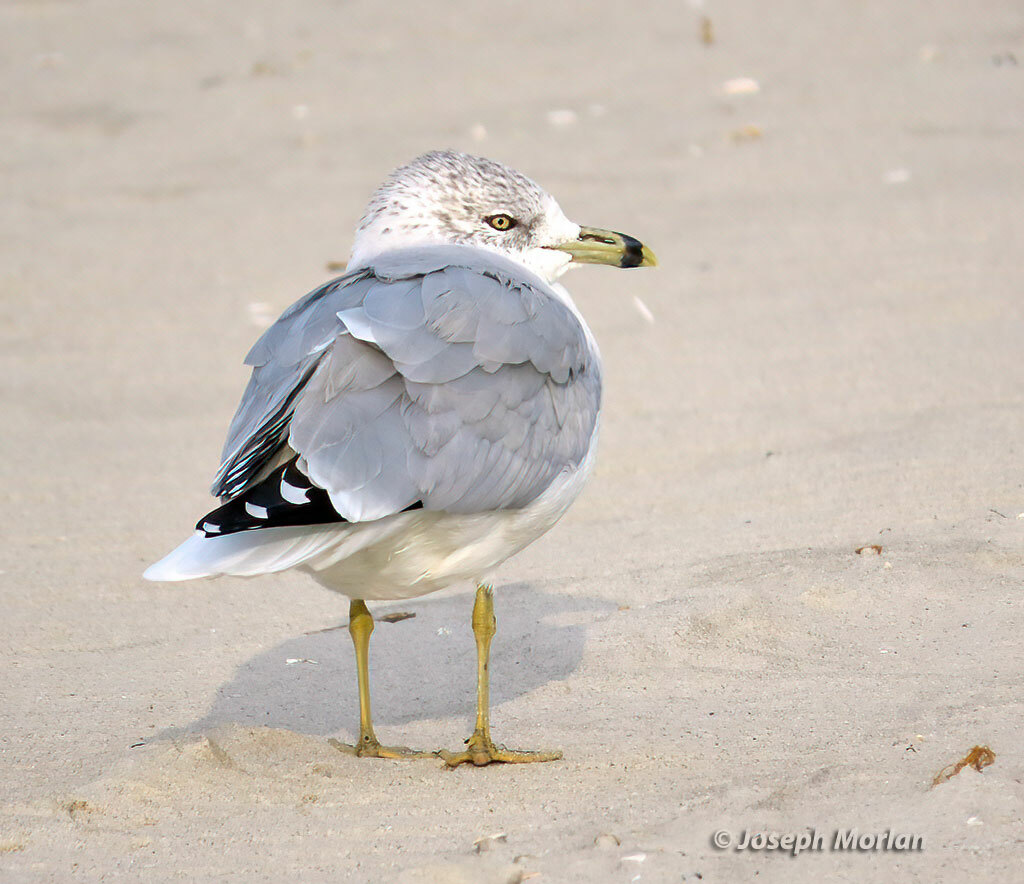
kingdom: Animalia
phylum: Chordata
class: Aves
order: Charadriiformes
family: Laridae
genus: Larus
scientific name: Larus delawarensis
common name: Ring-billed gull
